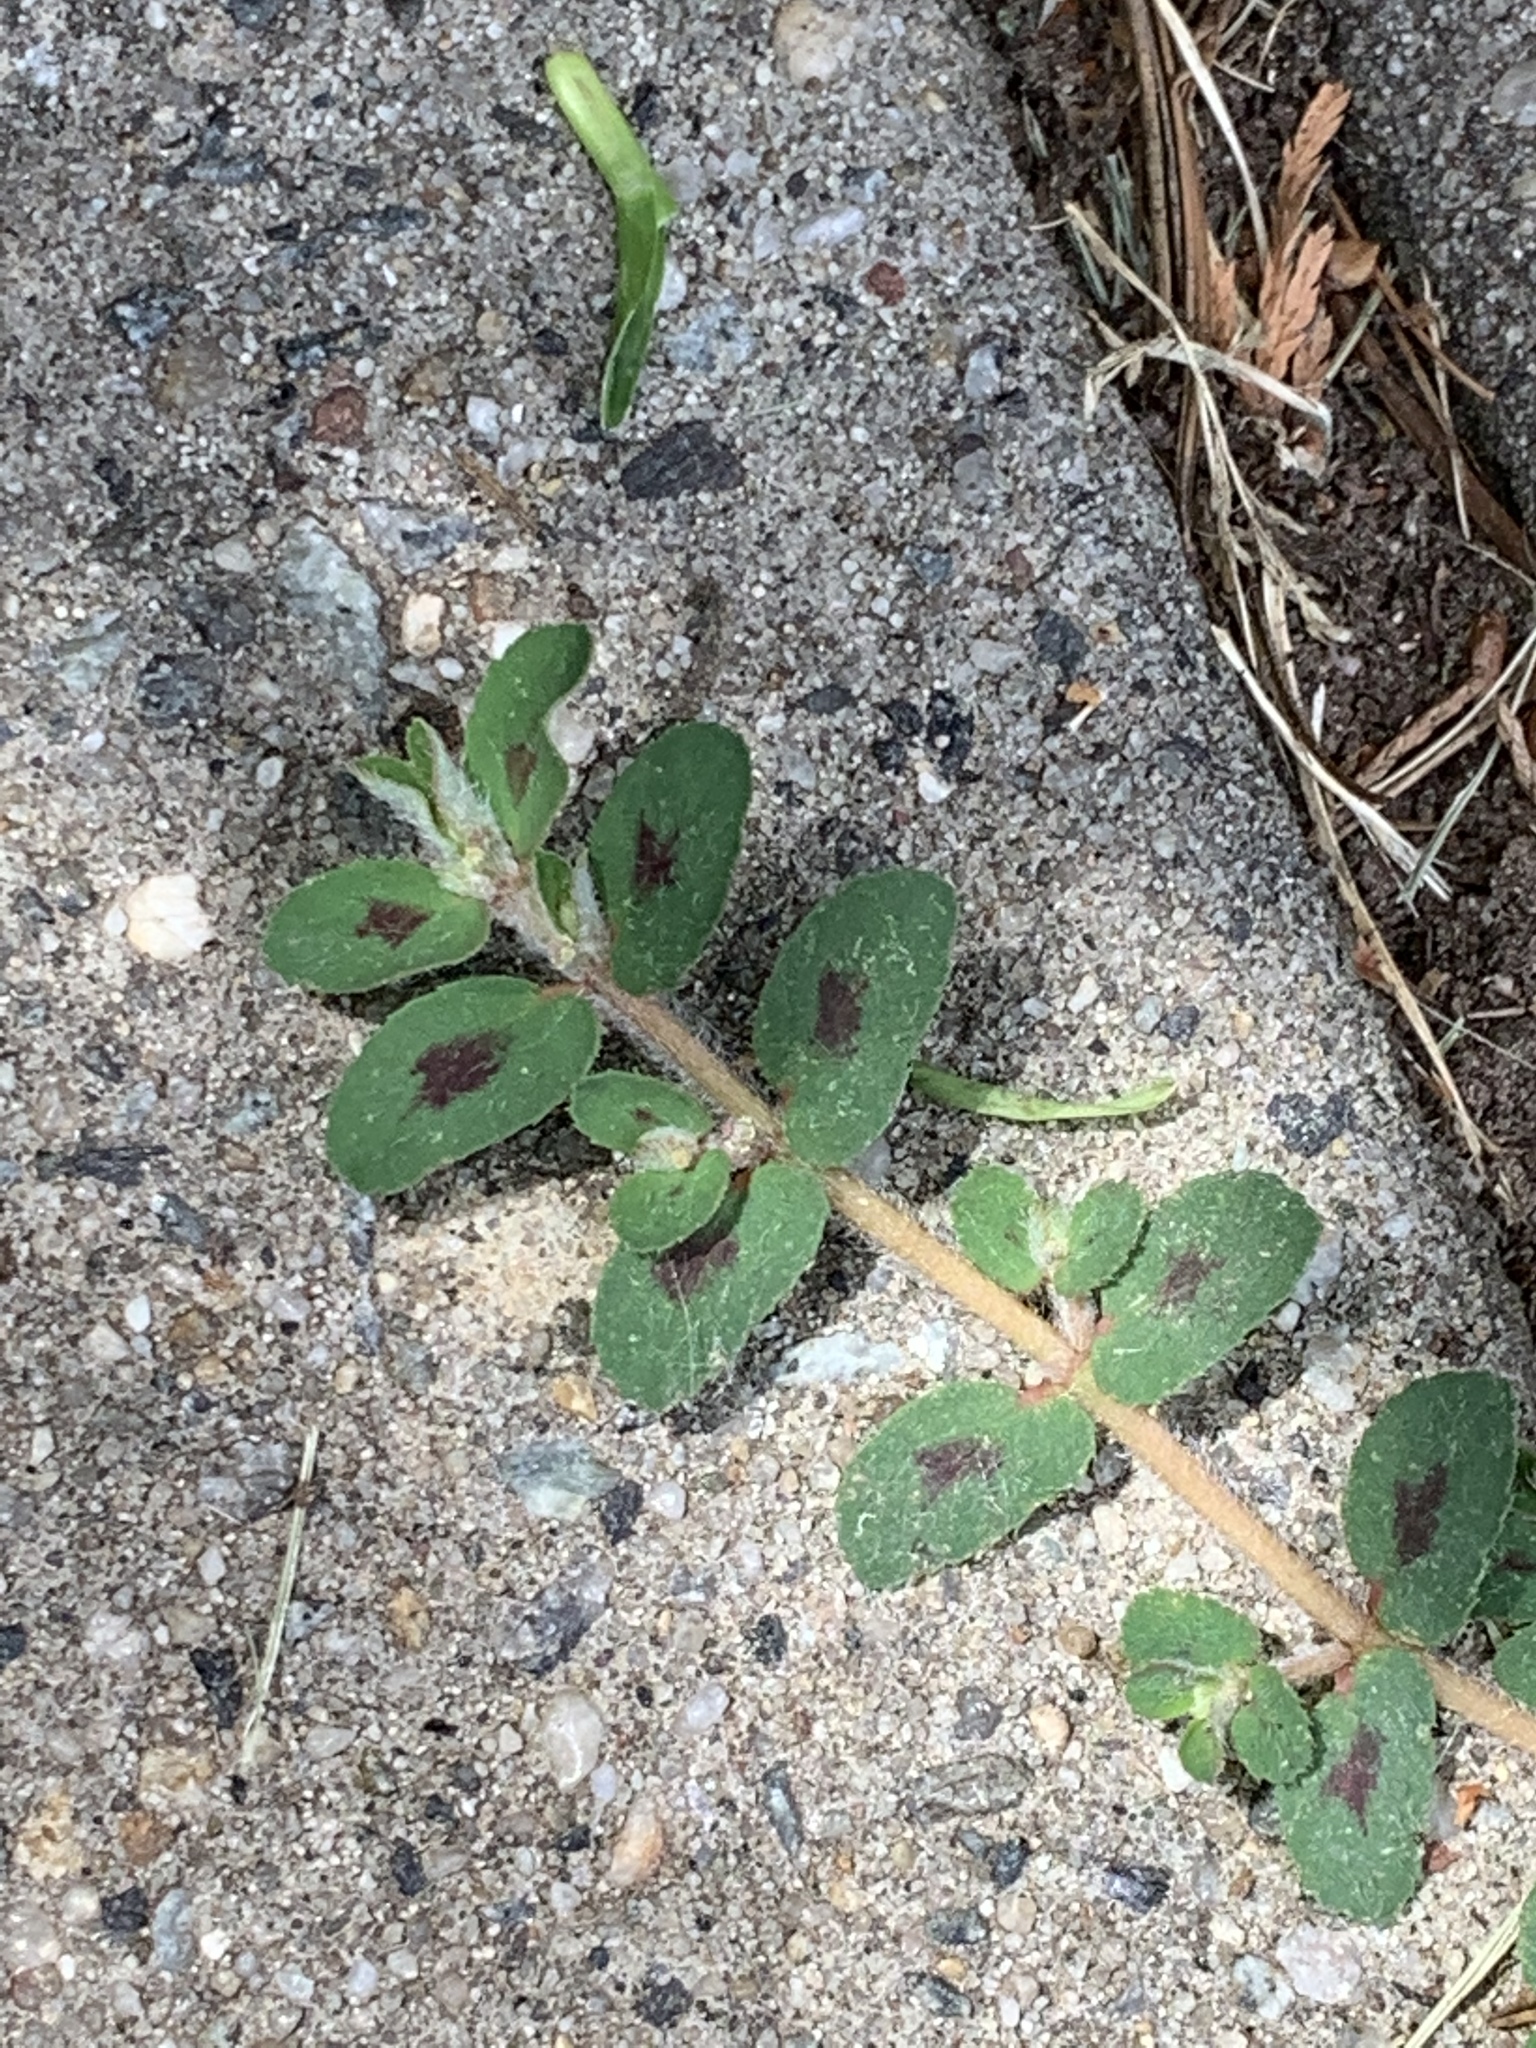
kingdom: Plantae
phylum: Tracheophyta
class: Magnoliopsida
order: Malpighiales
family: Euphorbiaceae
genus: Euphorbia
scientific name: Euphorbia maculata
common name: Spotted spurge
